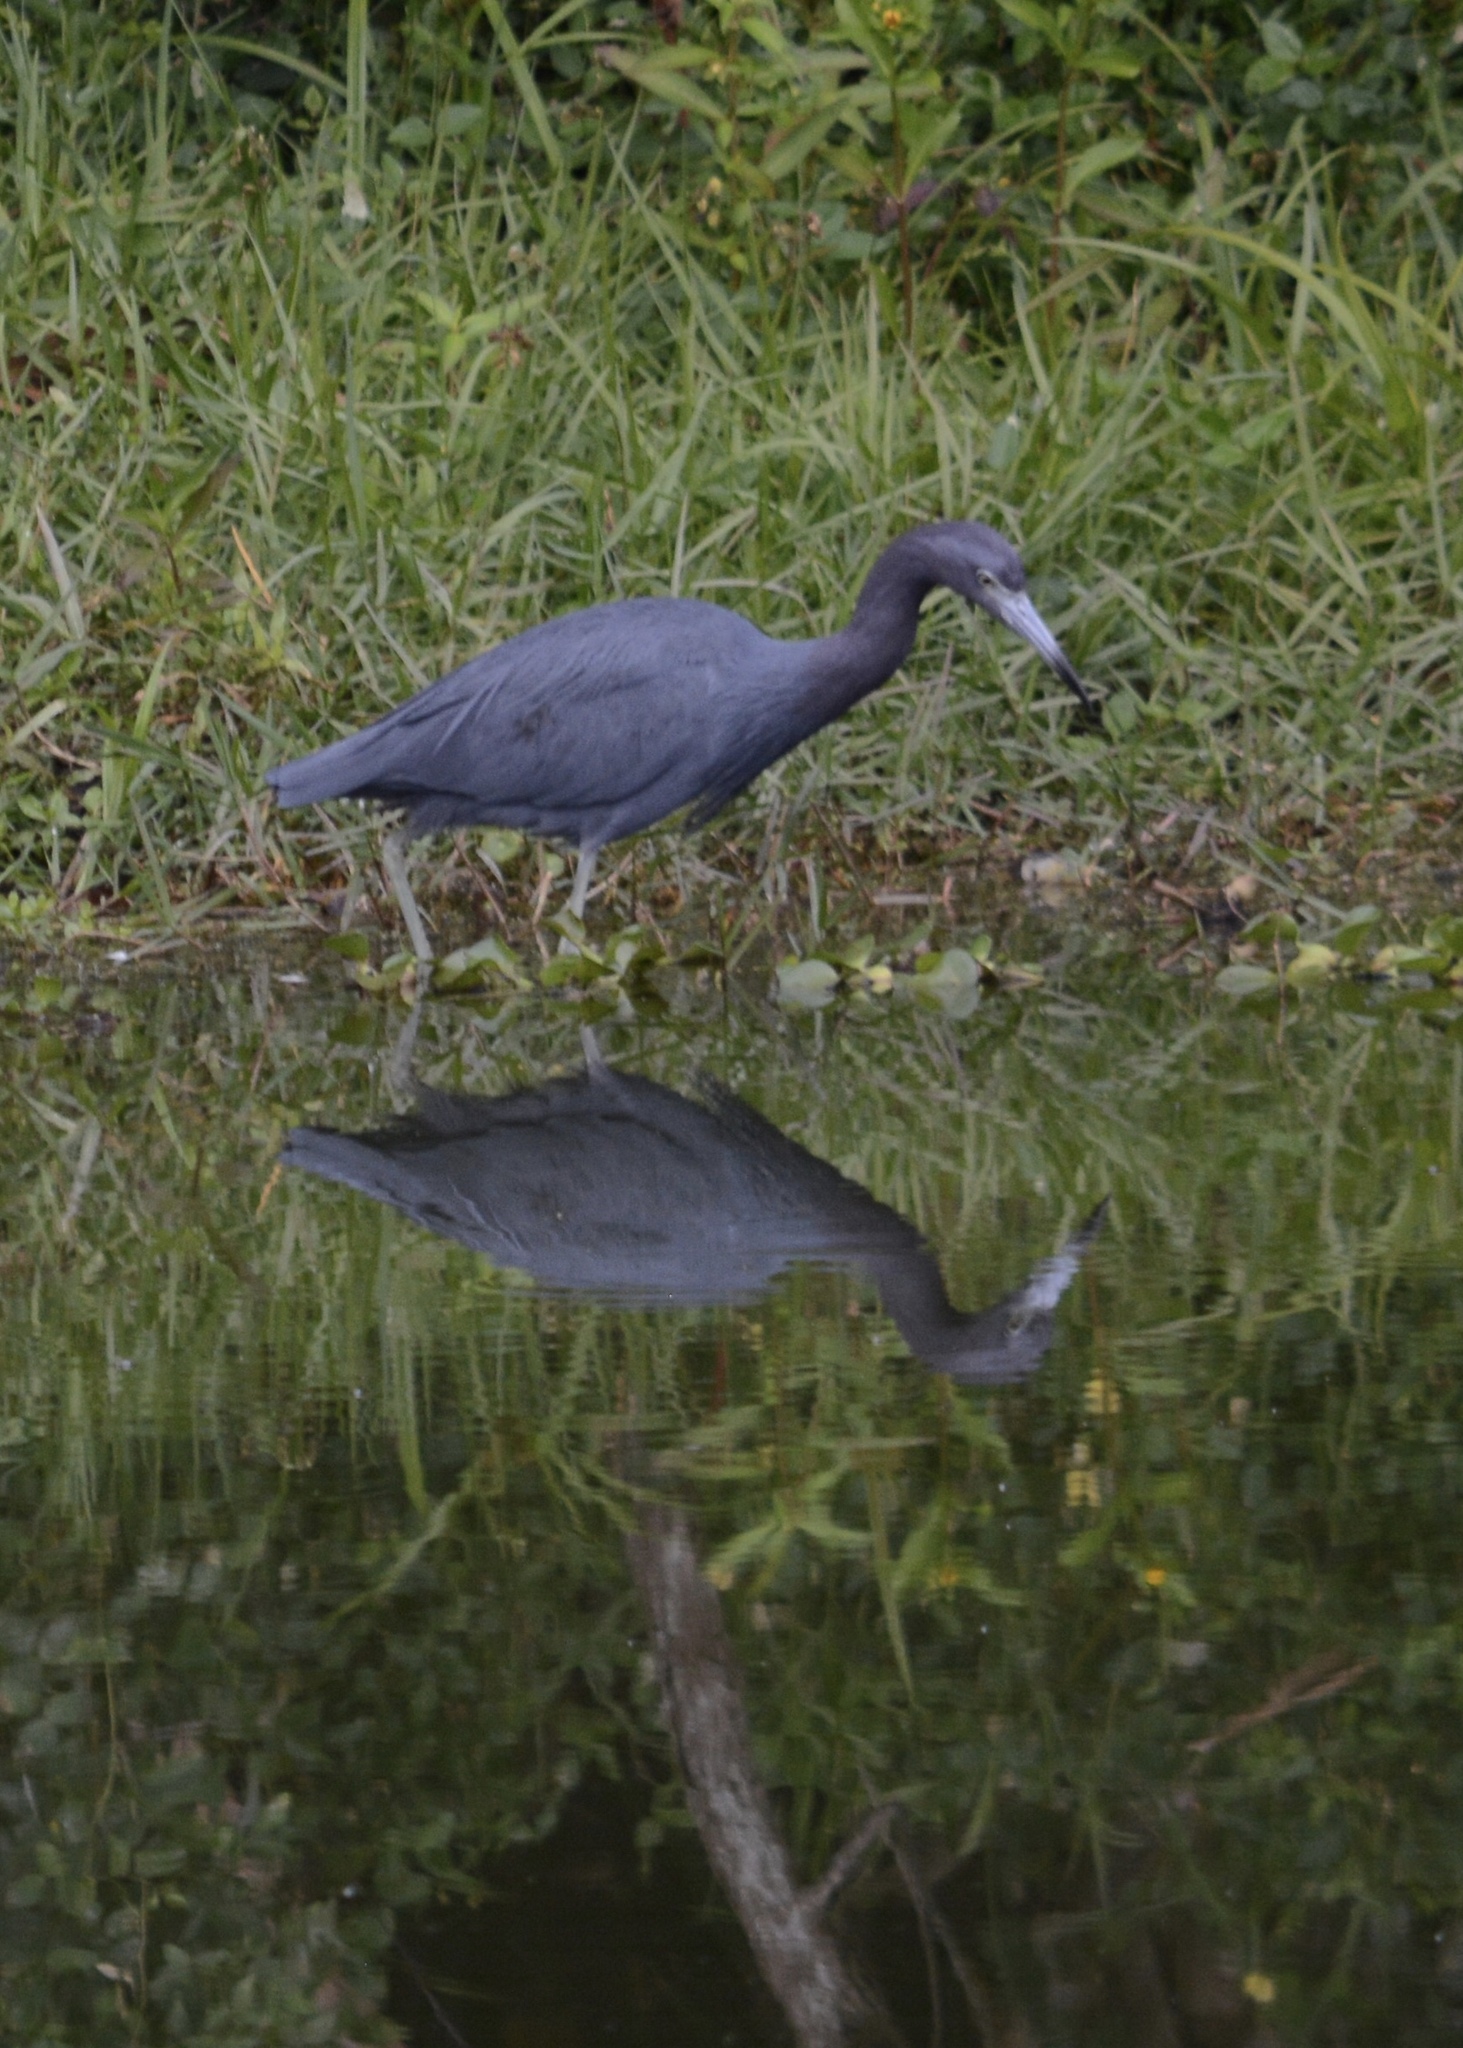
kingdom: Animalia
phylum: Chordata
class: Aves
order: Pelecaniformes
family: Ardeidae
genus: Egretta
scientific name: Egretta caerulea
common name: Little blue heron
